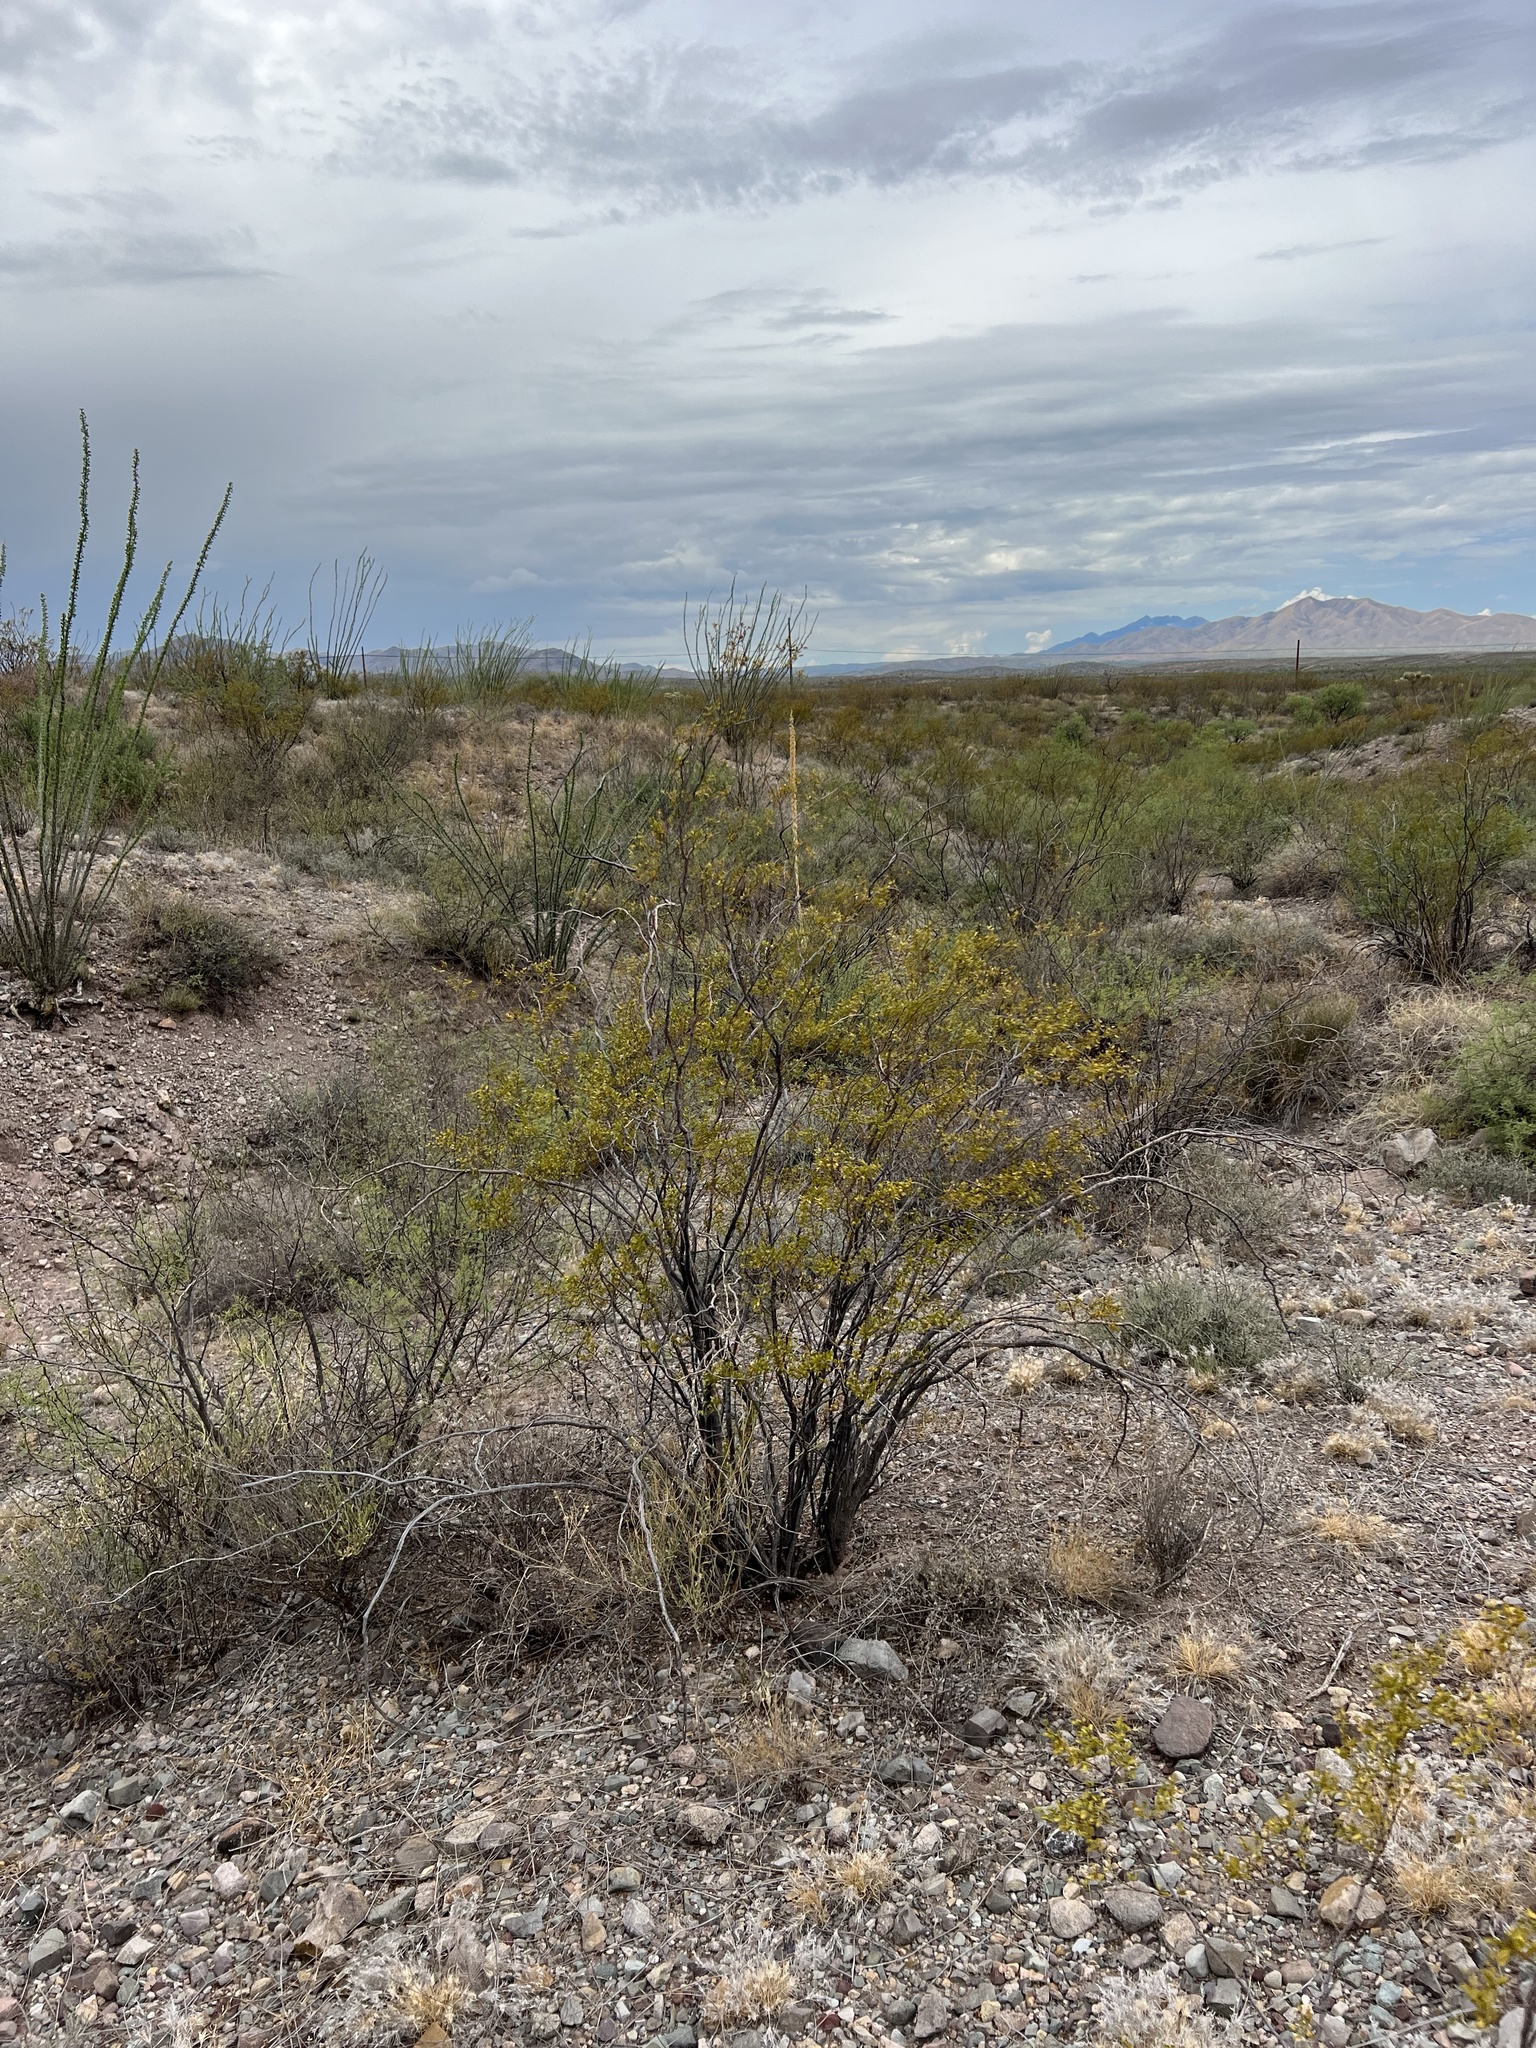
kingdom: Plantae
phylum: Tracheophyta
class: Magnoliopsida
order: Zygophyllales
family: Zygophyllaceae
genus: Larrea
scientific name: Larrea tridentata
